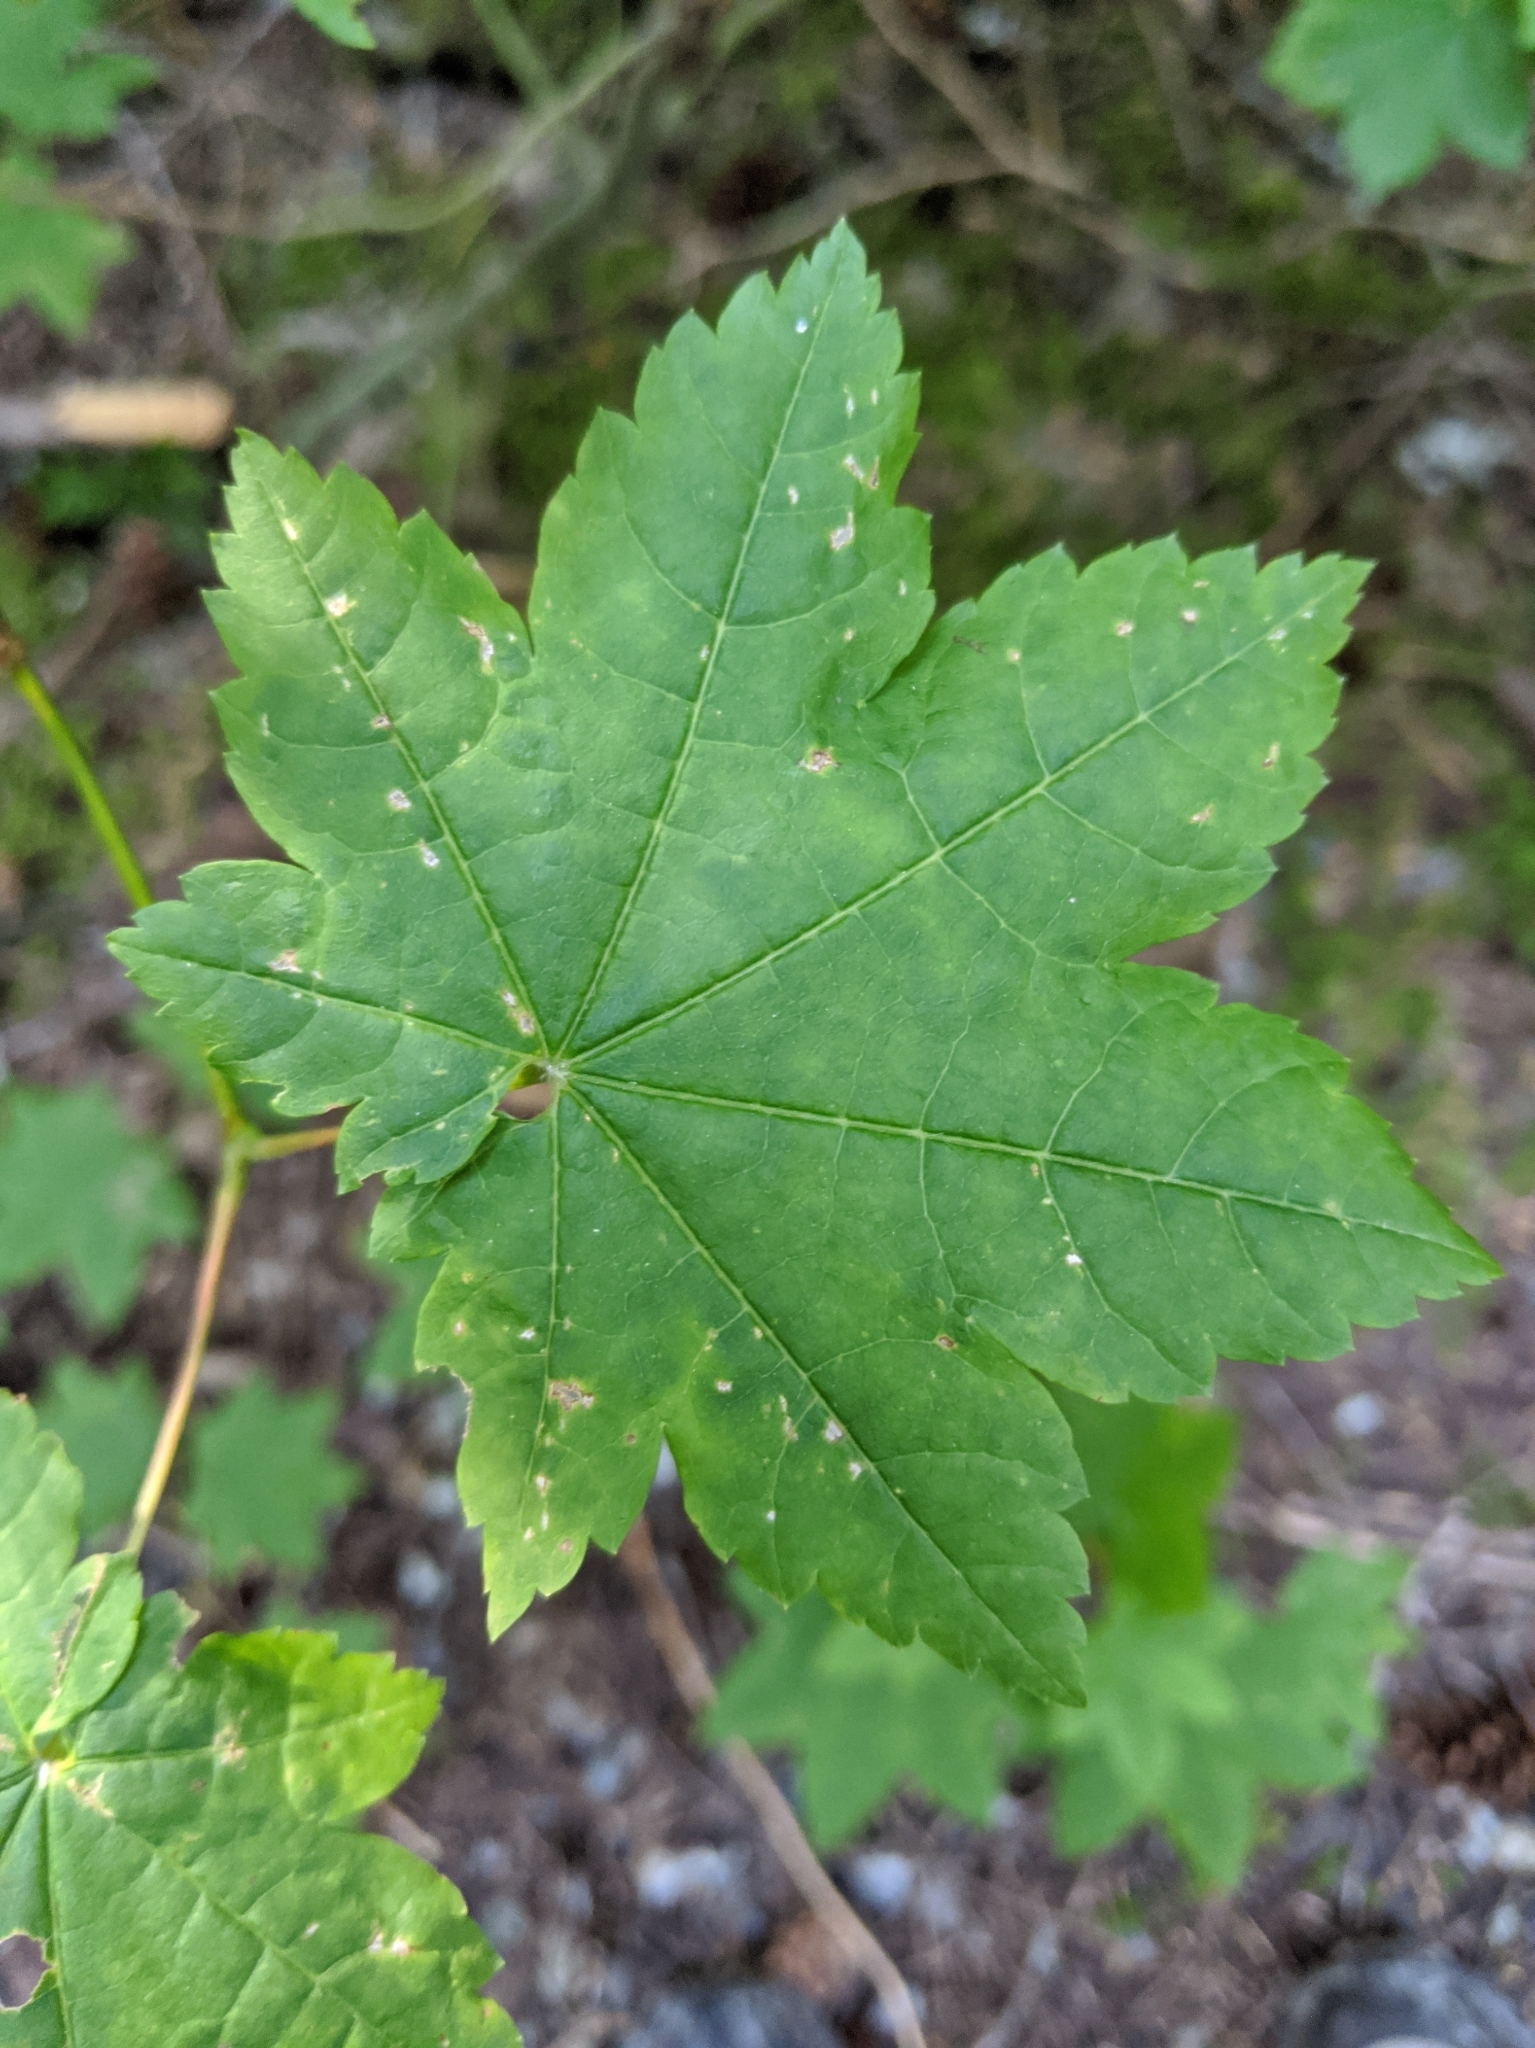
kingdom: Plantae
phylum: Tracheophyta
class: Magnoliopsida
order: Sapindales
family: Sapindaceae
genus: Acer
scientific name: Acer circinatum
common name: Vine maple
